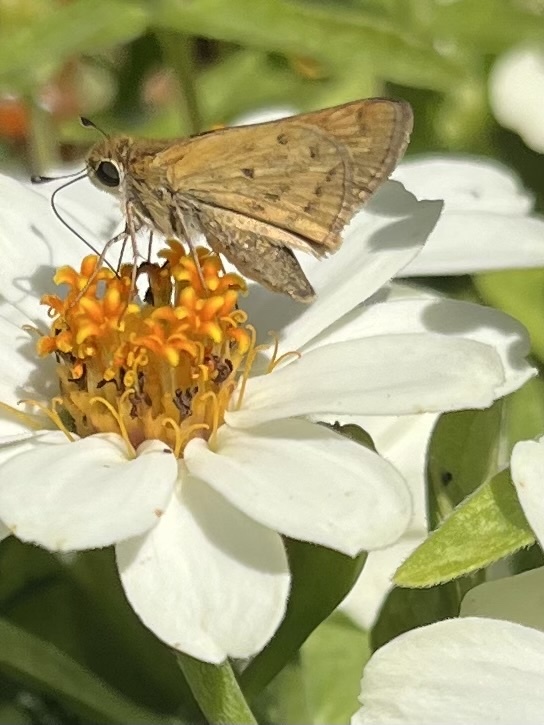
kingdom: Animalia
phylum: Arthropoda
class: Insecta
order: Lepidoptera
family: Hesperiidae
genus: Hylephila
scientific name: Hylephila phyleus
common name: Fiery skipper
